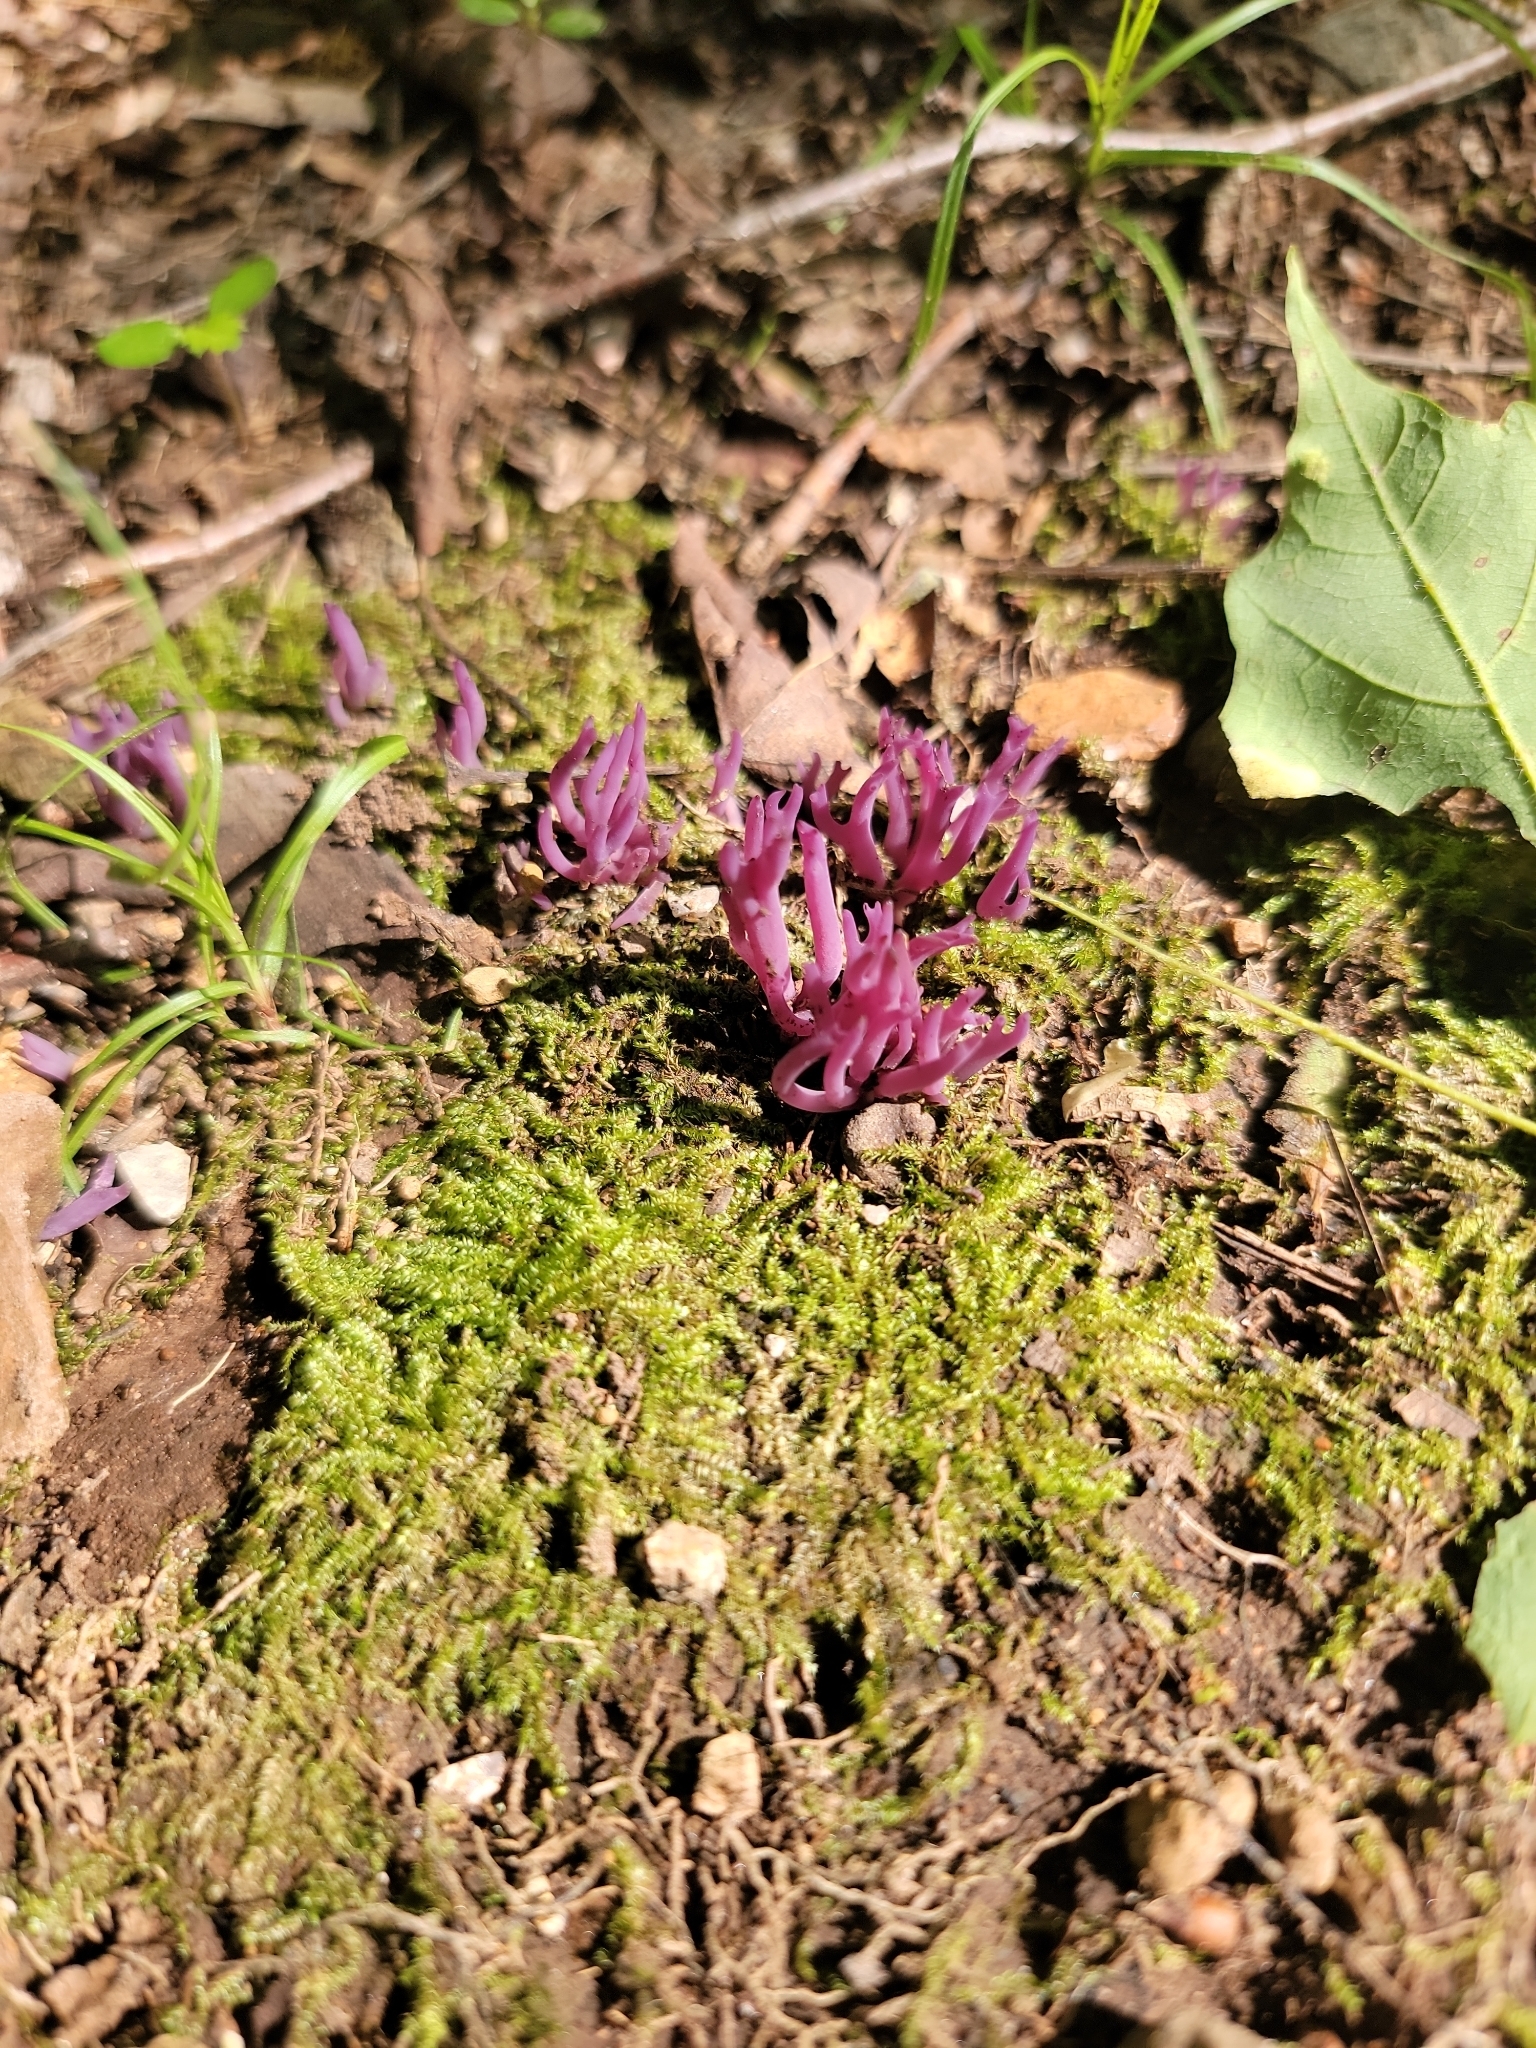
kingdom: Fungi
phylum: Basidiomycota
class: Agaricomycetes
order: Agaricales
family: Clavariaceae
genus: Clavaria
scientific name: Clavaria zollingeri
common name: Violet coral
